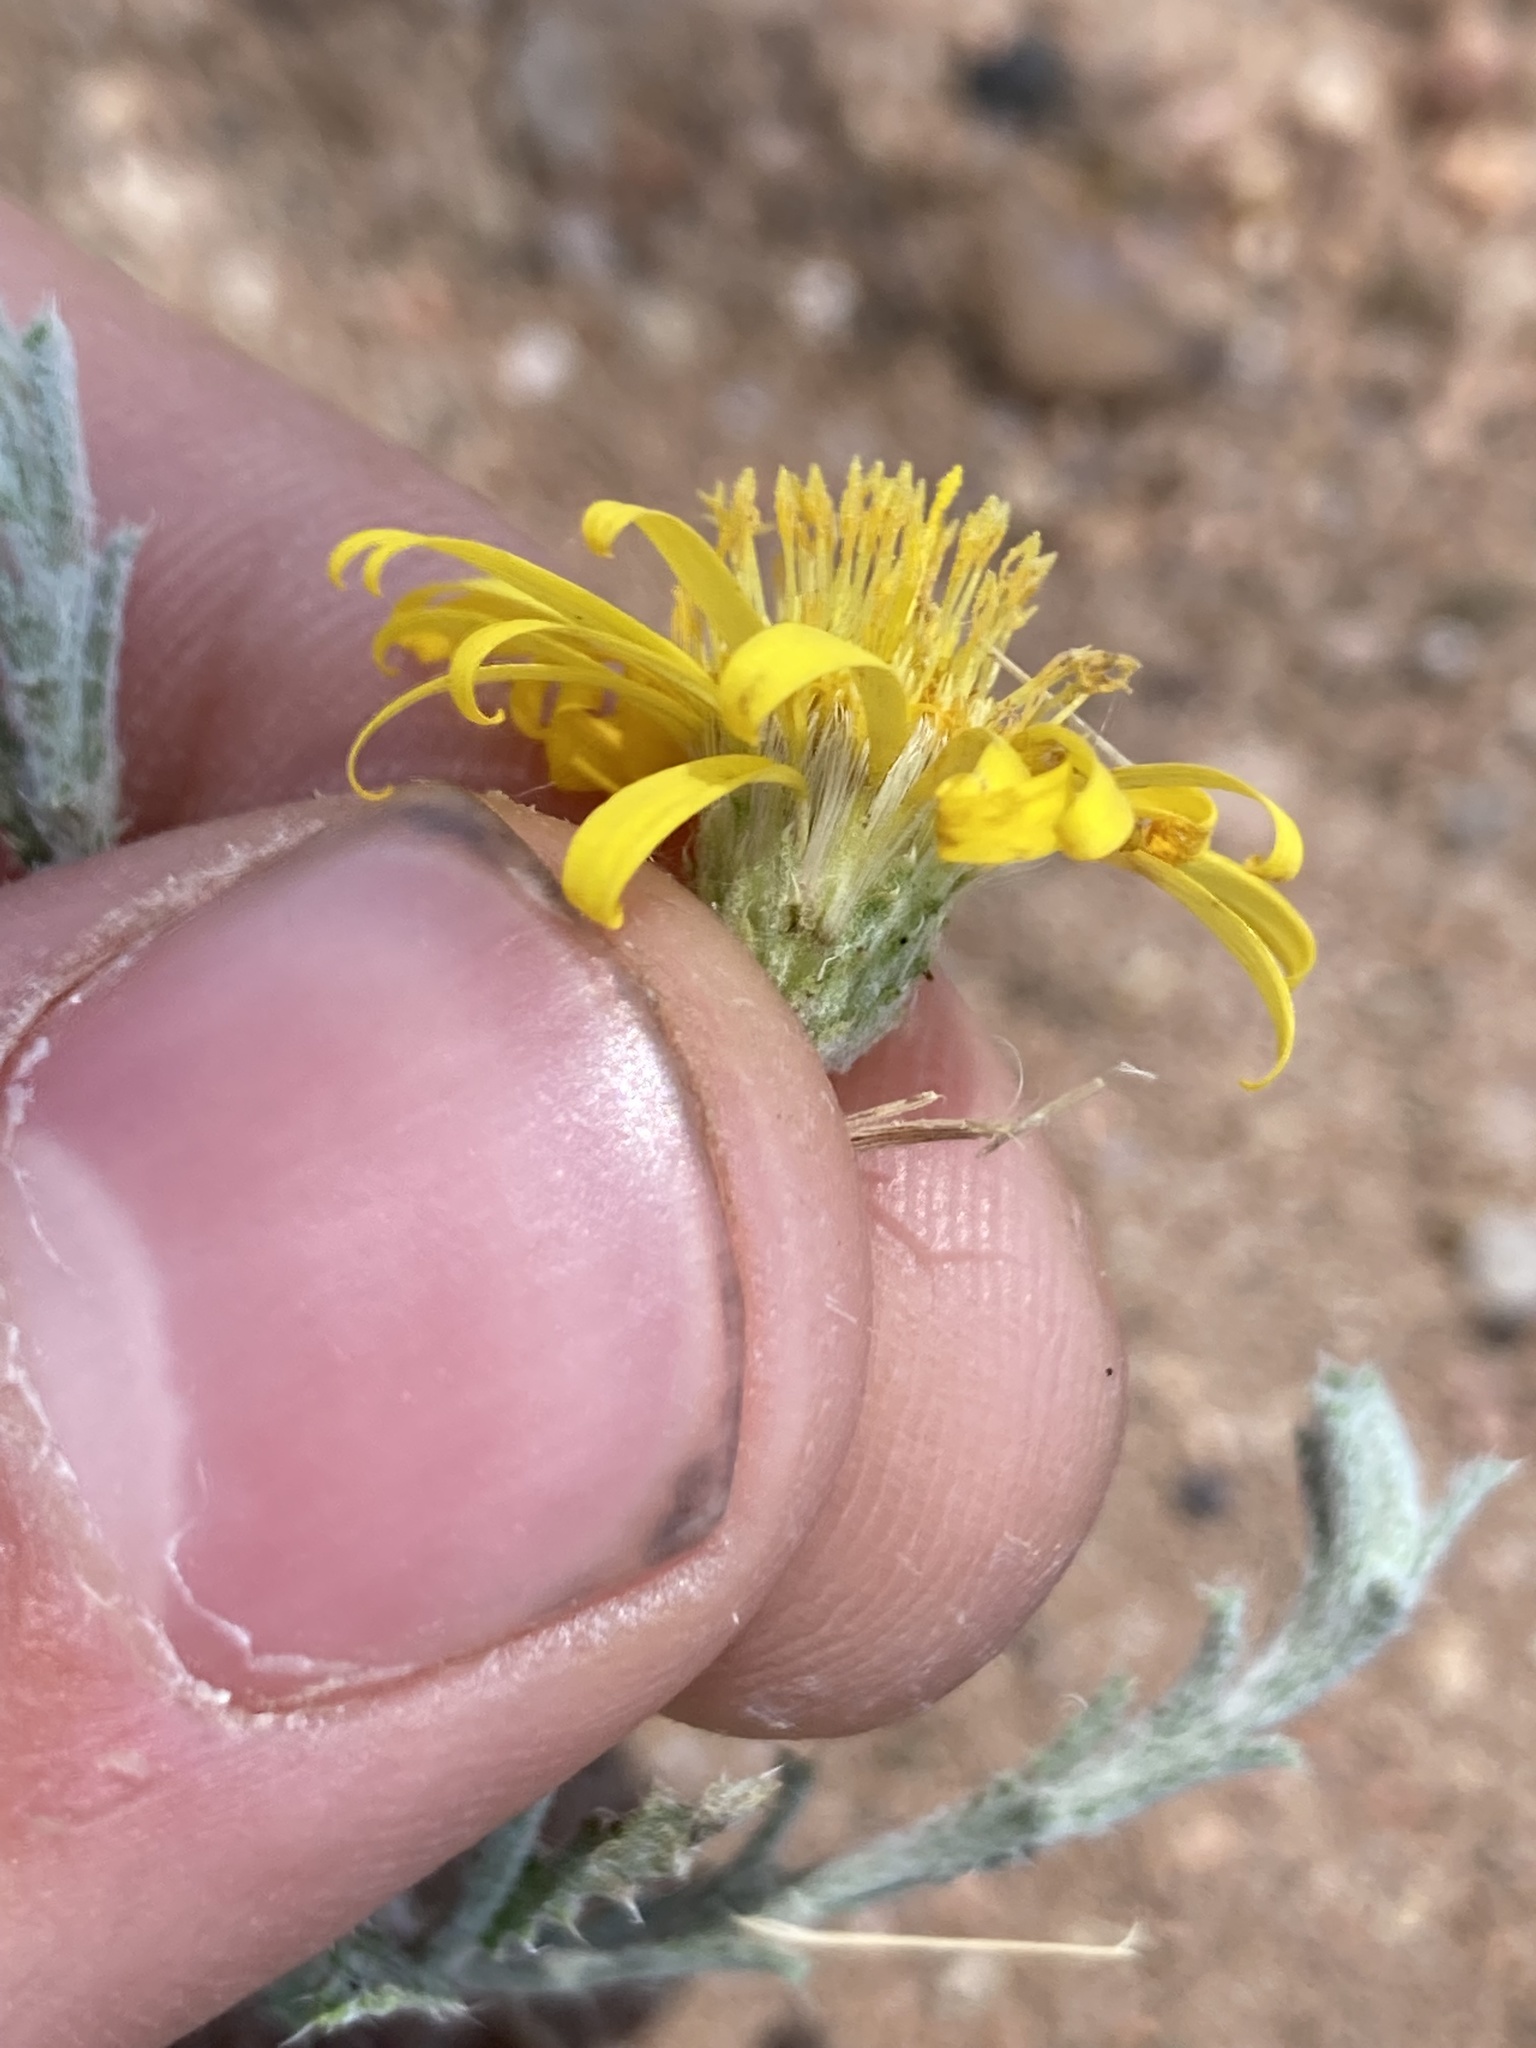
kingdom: Plantae
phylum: Tracheophyta
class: Magnoliopsida
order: Asterales
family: Asteraceae
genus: Xanthisma
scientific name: Xanthisma spinulosum
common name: Spiny goldenweed
